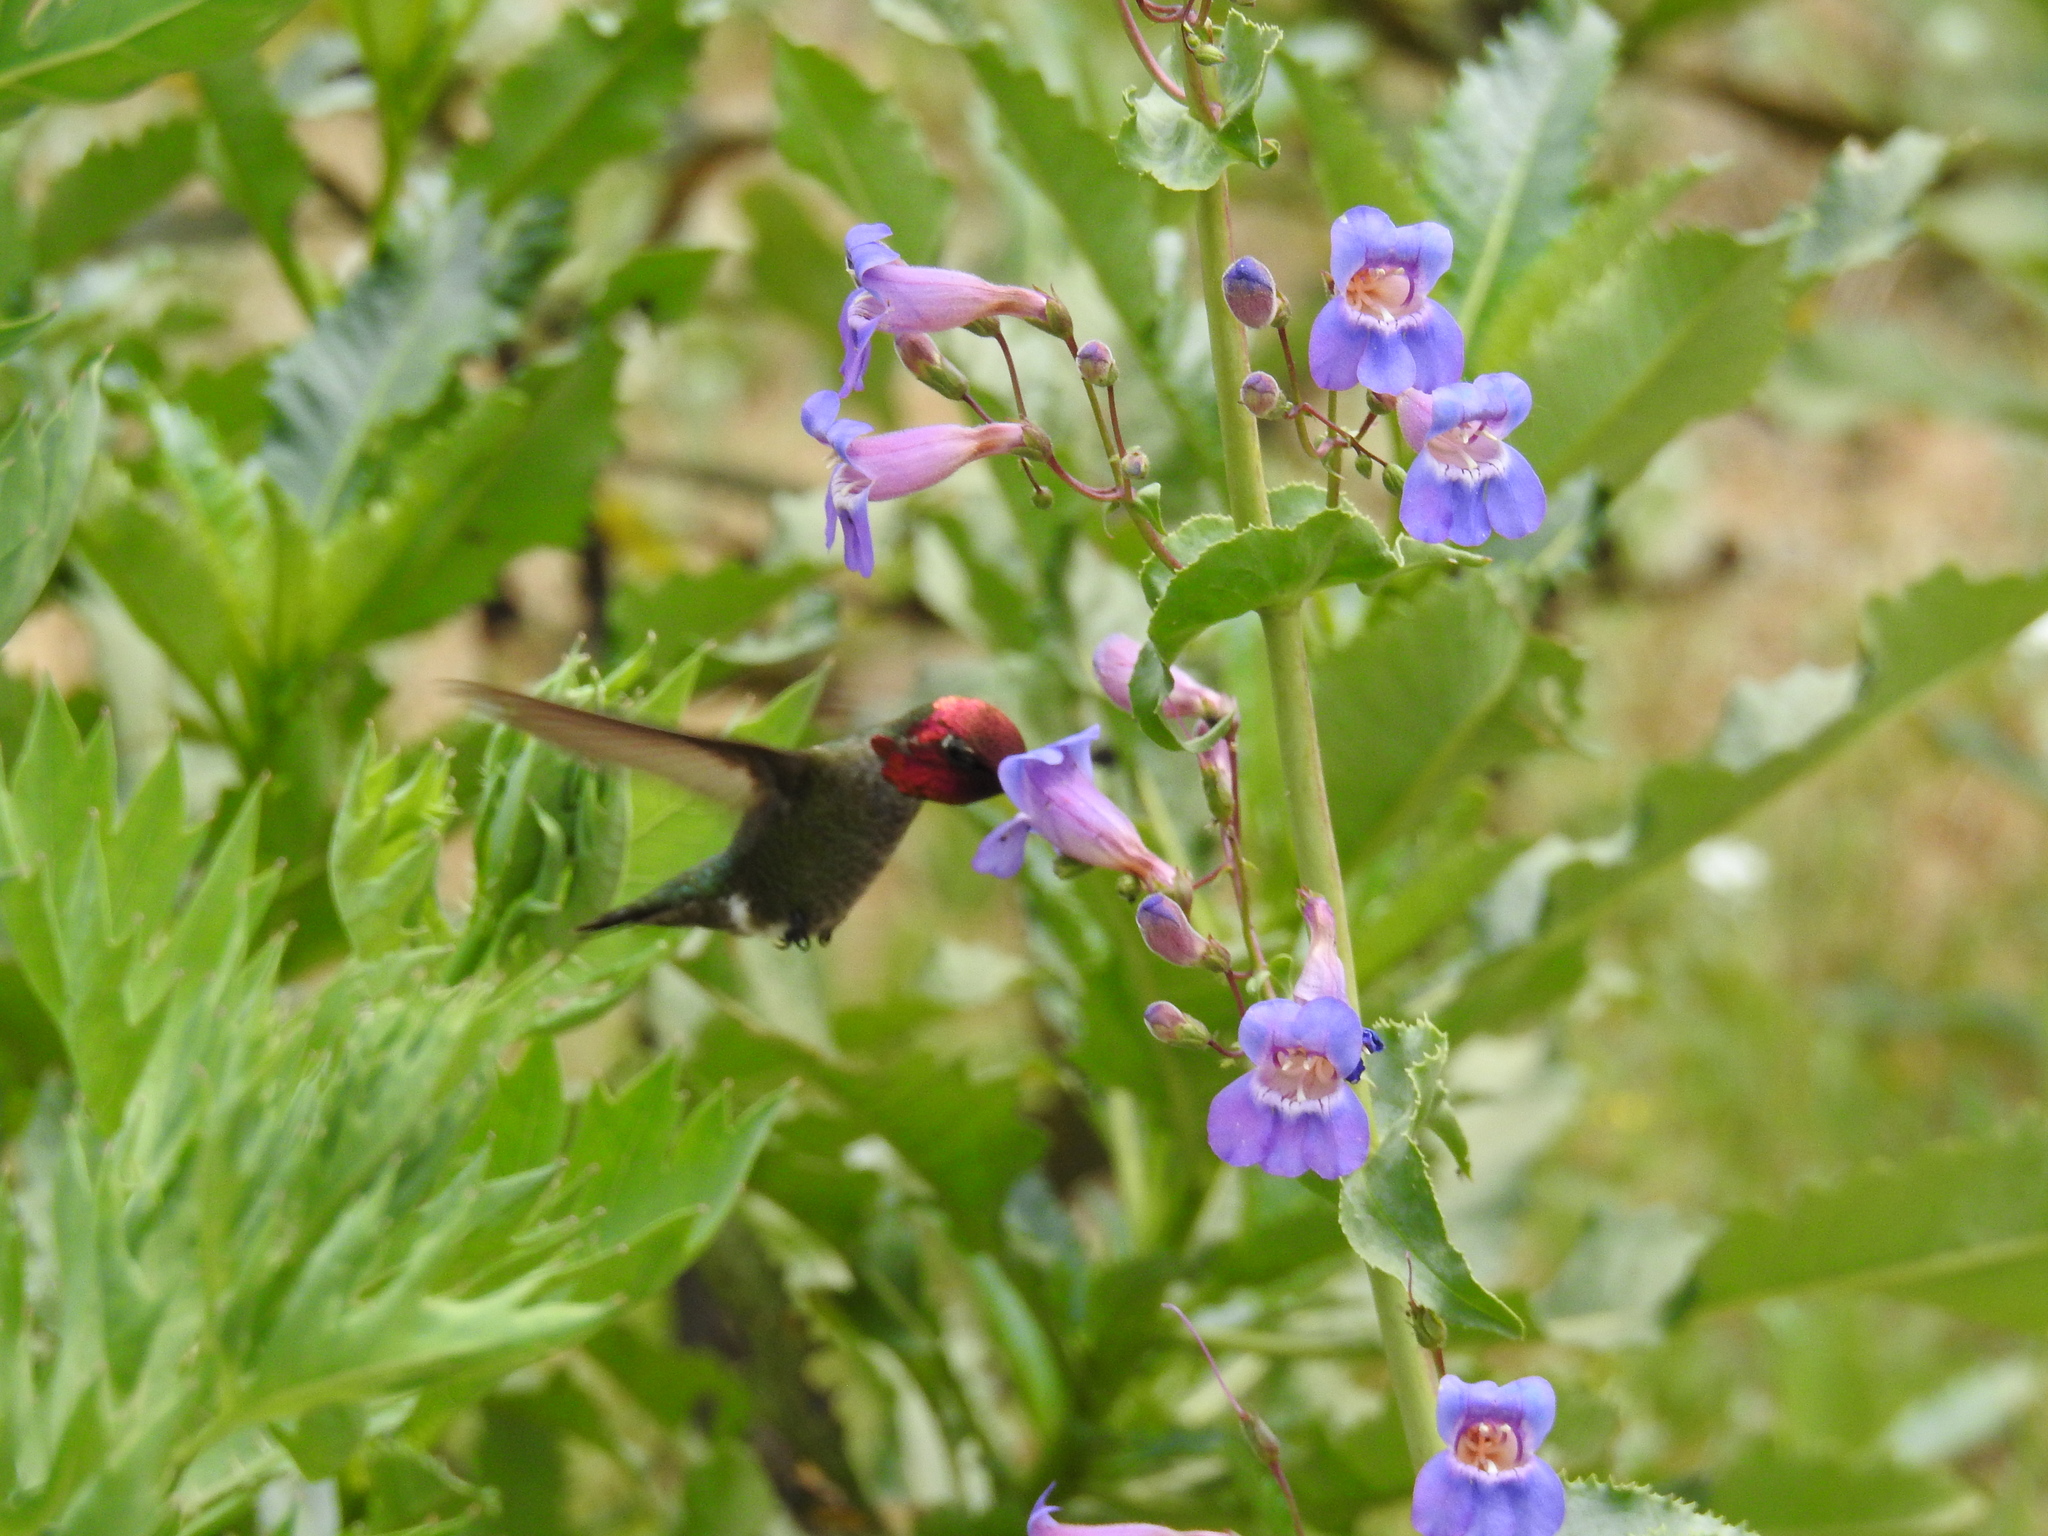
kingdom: Animalia
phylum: Chordata
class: Aves
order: Apodiformes
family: Trochilidae
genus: Calypte
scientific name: Calypte anna
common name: Anna's hummingbird
